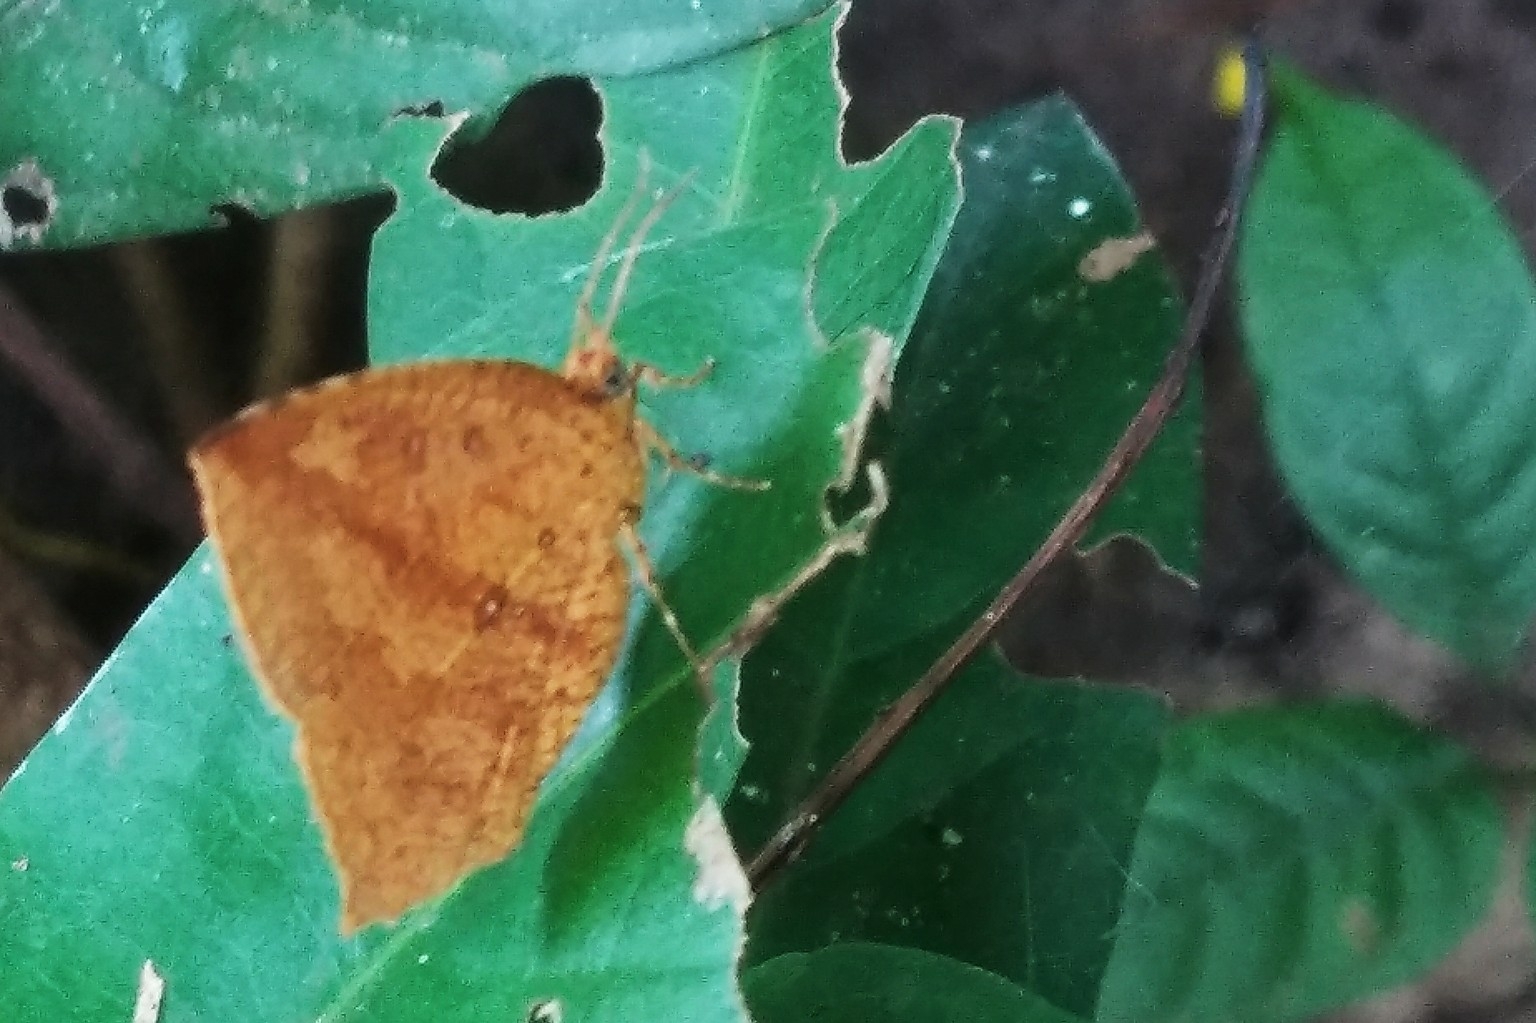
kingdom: Animalia
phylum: Arthropoda
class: Insecta
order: Lepidoptera
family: Callidulidae
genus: Tetragonus
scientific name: Tetragonus catamitus
